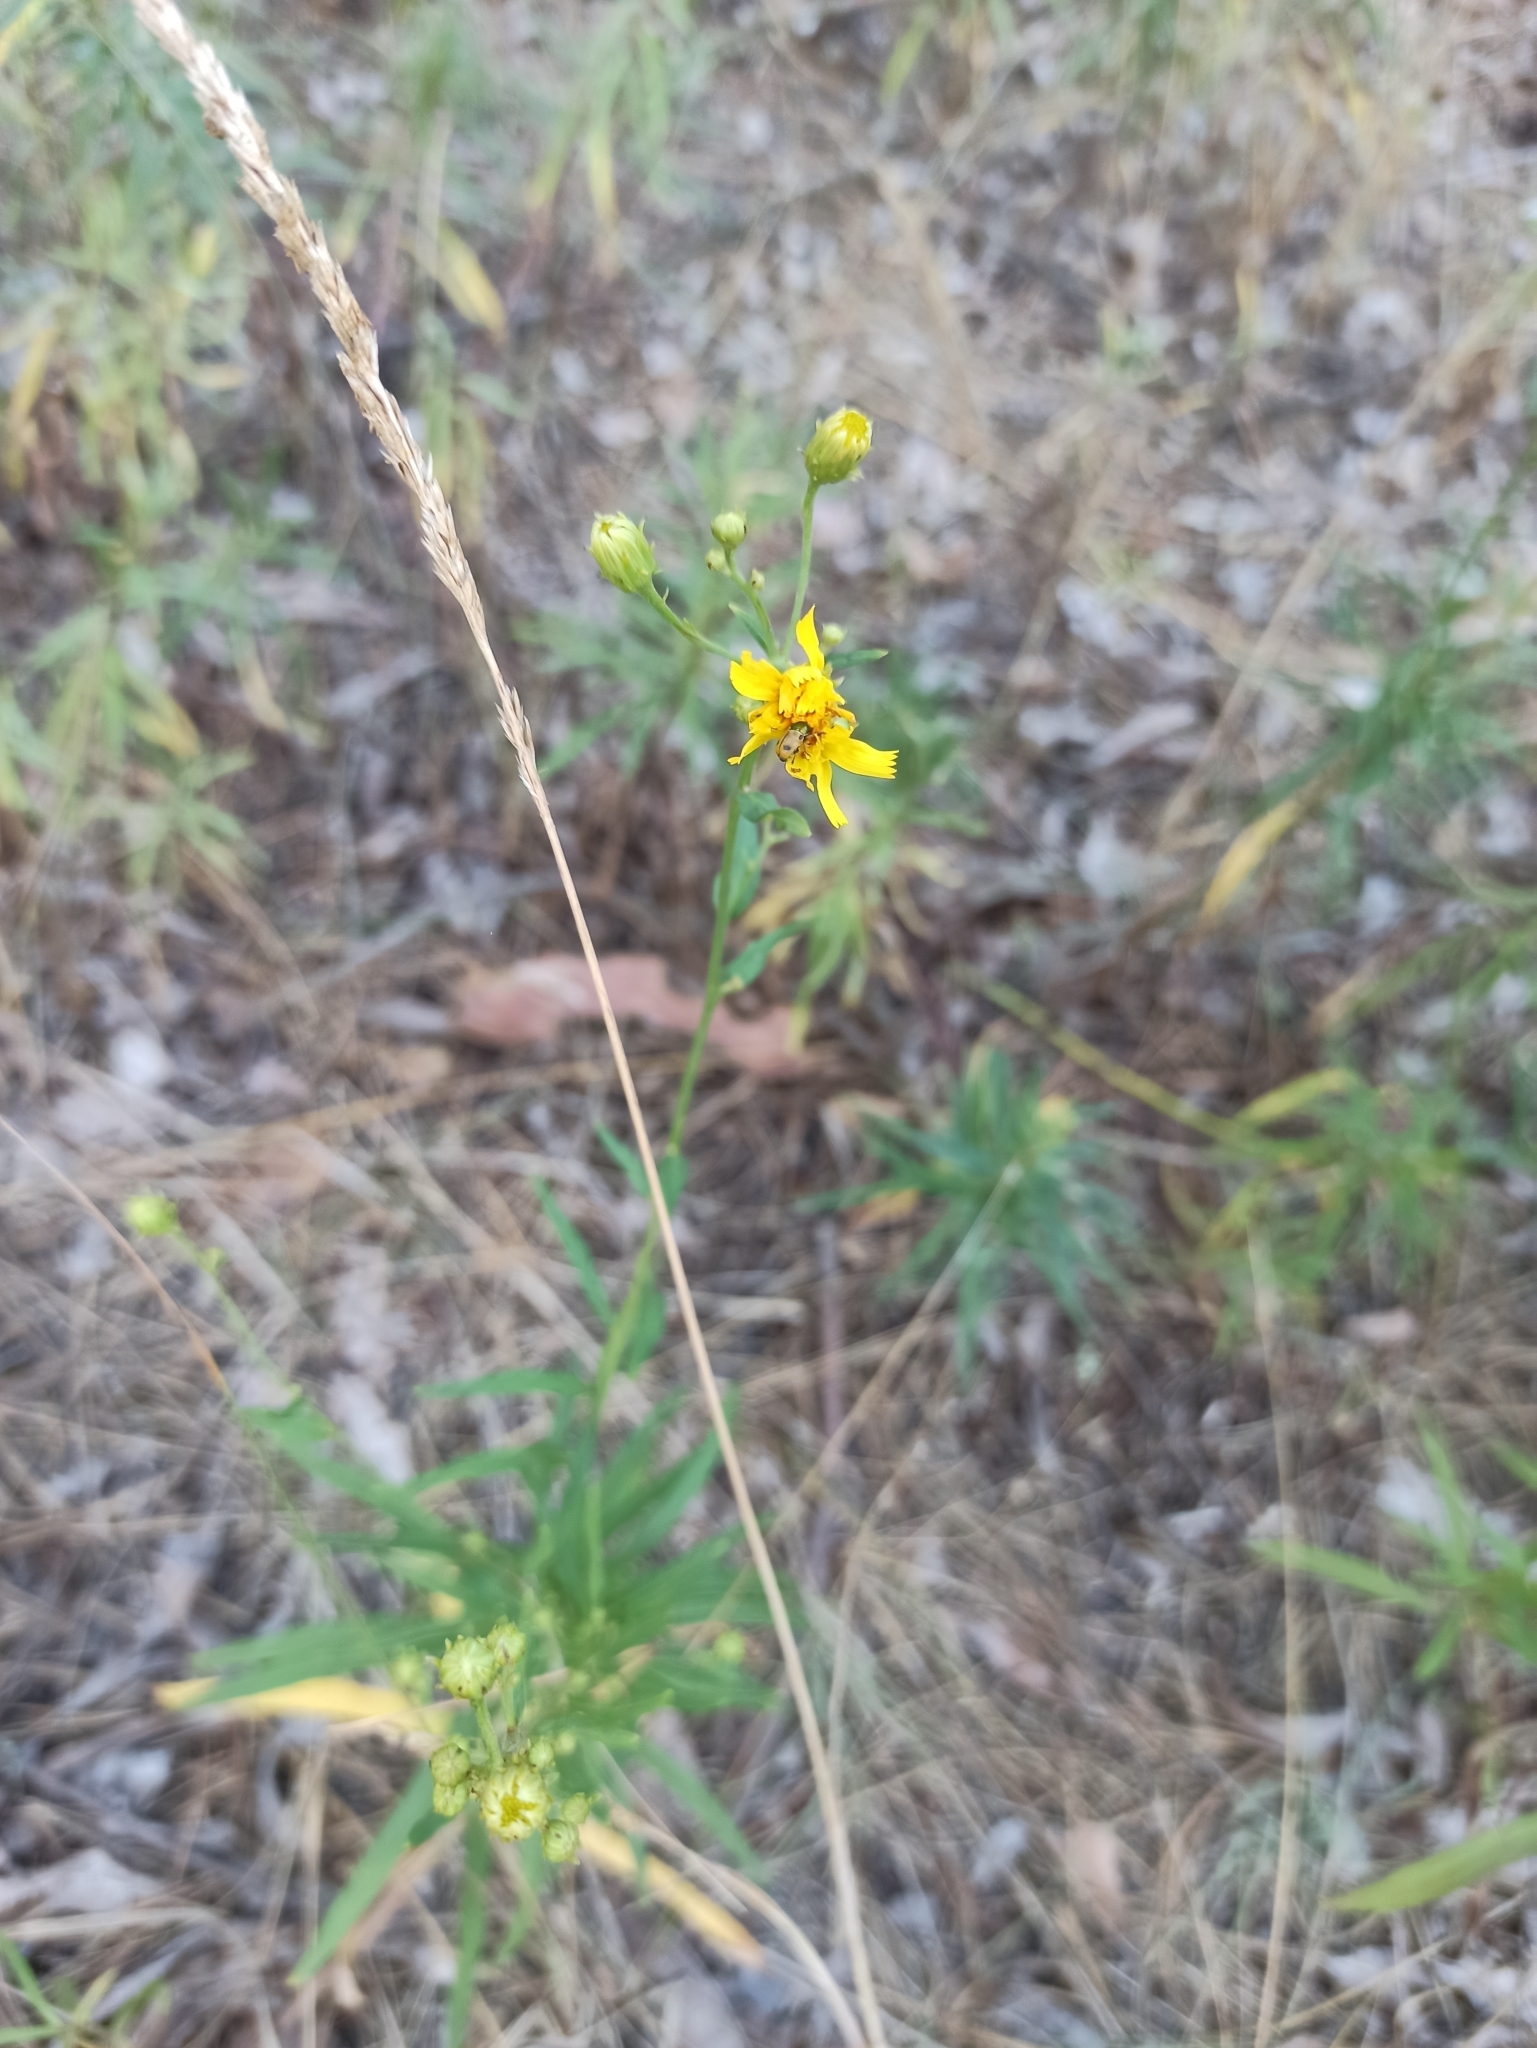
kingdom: Plantae
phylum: Tracheophyta
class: Magnoliopsida
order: Asterales
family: Asteraceae
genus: Hieracium
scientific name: Hieracium umbellatum
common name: Northern hawkweed
